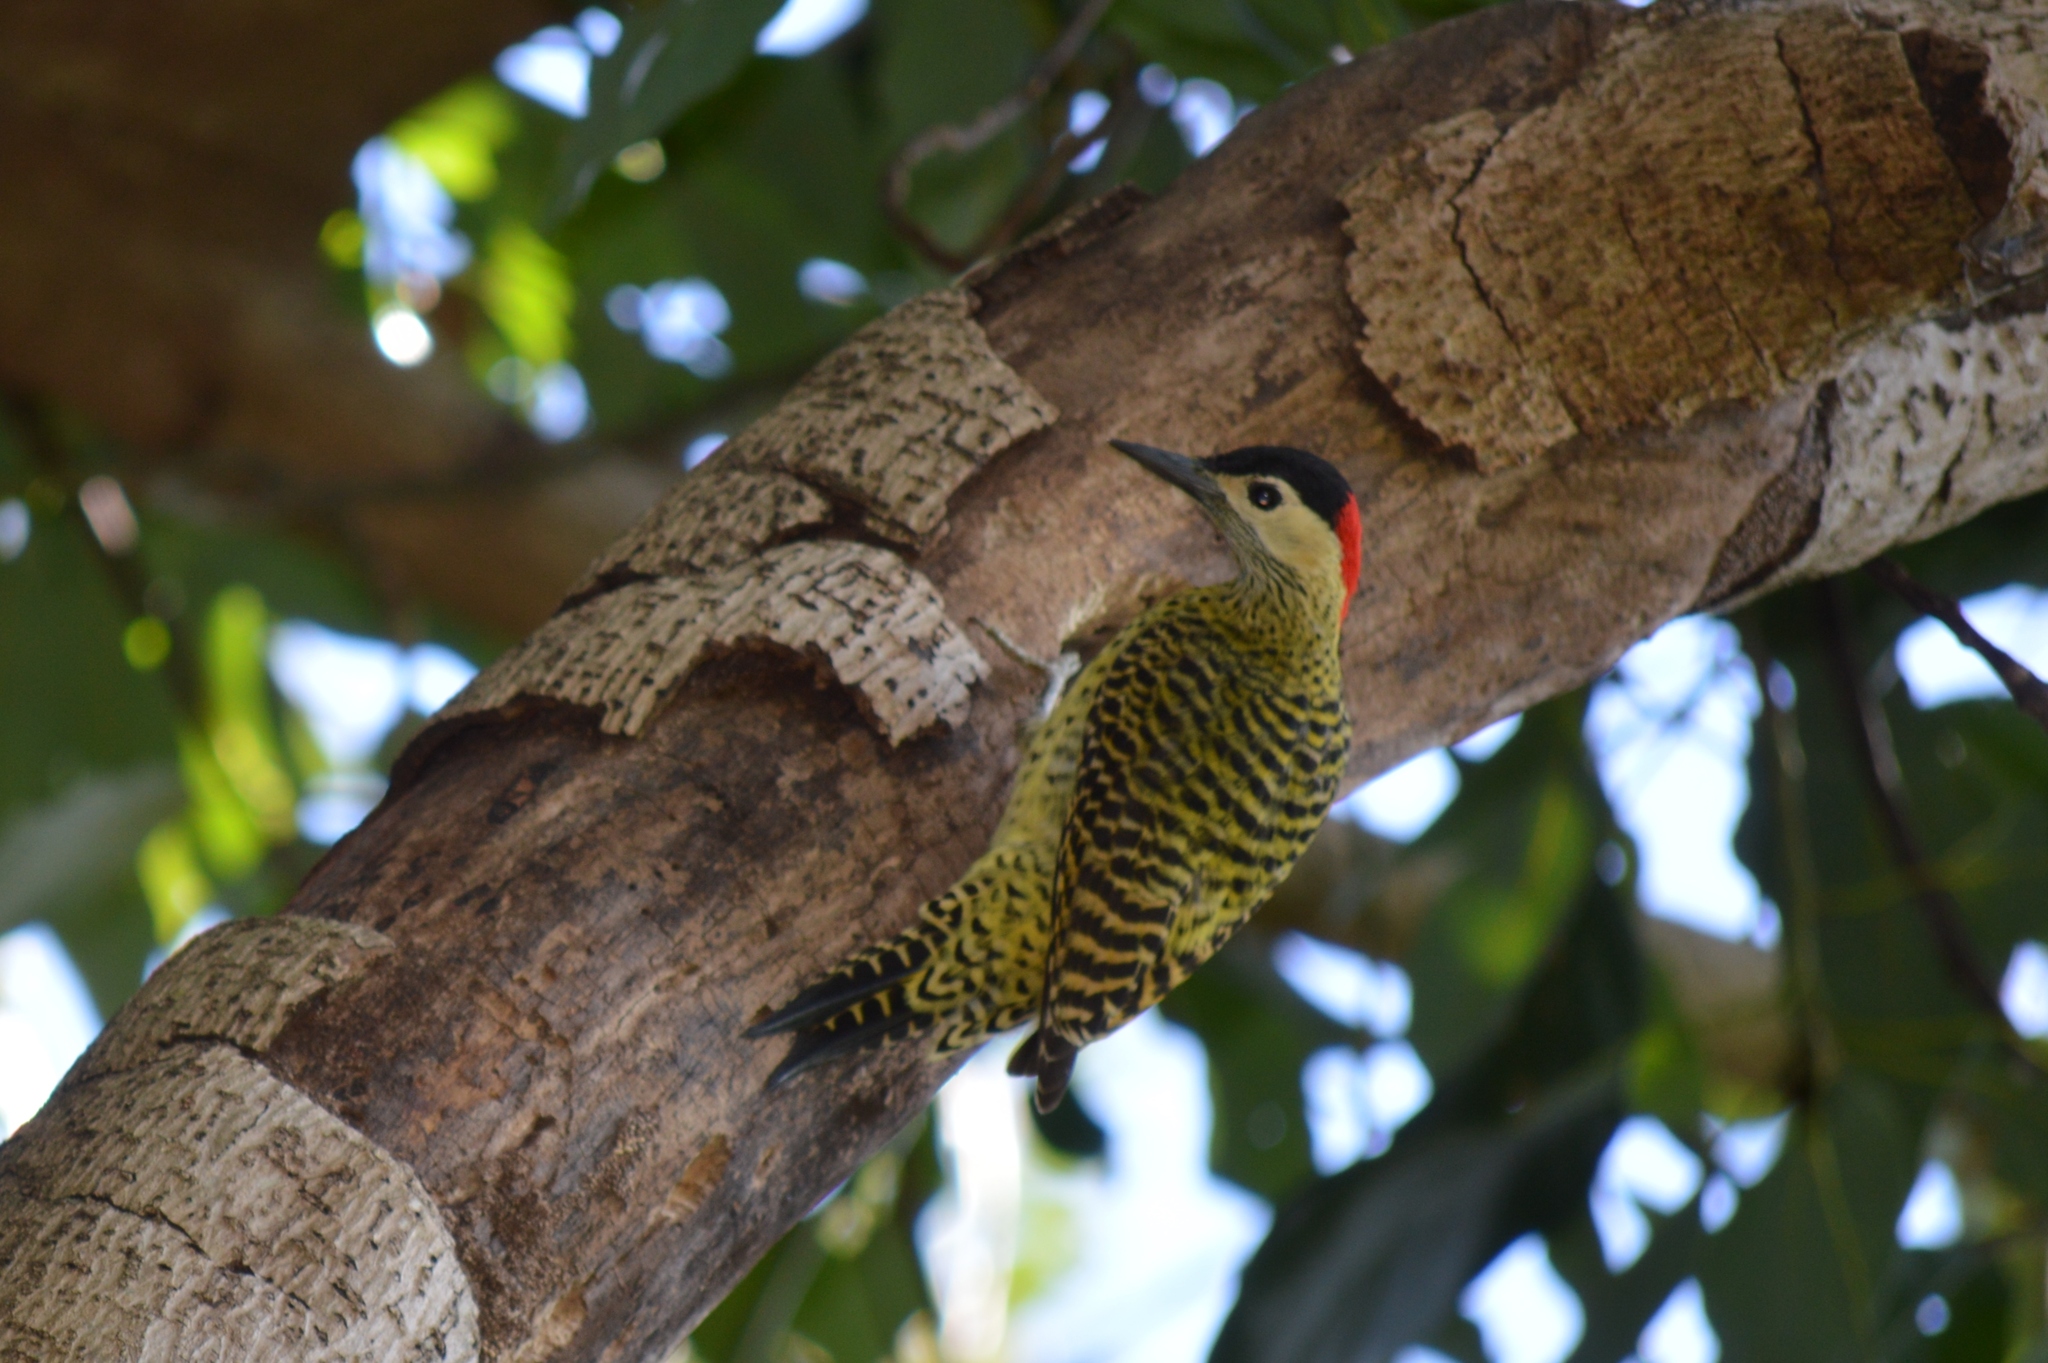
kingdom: Animalia
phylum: Chordata
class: Aves
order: Piciformes
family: Picidae
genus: Colaptes
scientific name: Colaptes melanochloros
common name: Green-barred woodpecker
